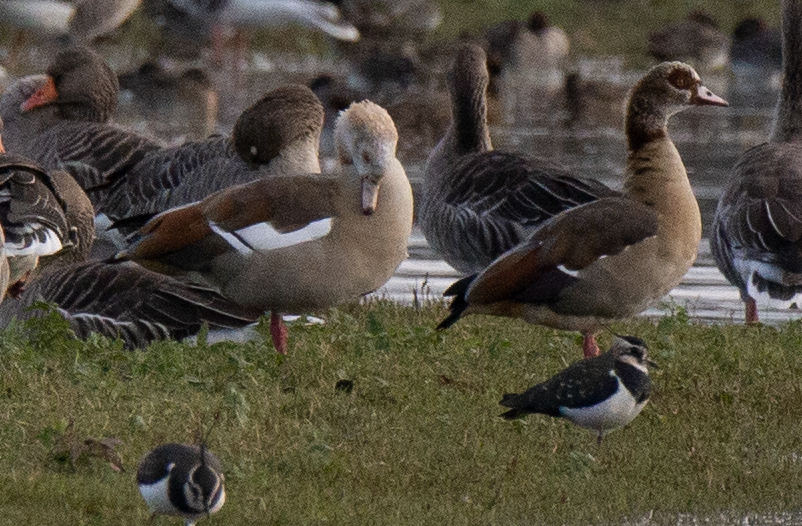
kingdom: Animalia
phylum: Chordata
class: Aves
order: Anseriformes
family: Anatidae
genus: Alopochen
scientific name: Alopochen aegyptiaca
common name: Egyptian goose
